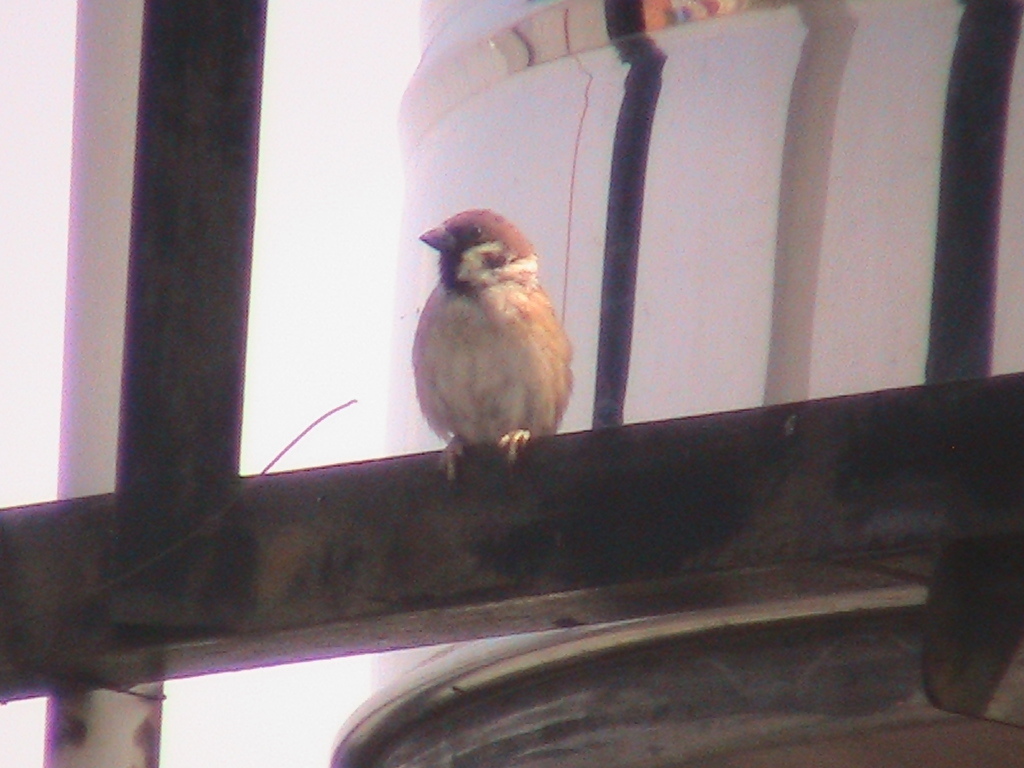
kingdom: Animalia
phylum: Chordata
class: Aves
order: Passeriformes
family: Passeridae
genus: Passer
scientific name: Passer montanus
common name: Eurasian tree sparrow
